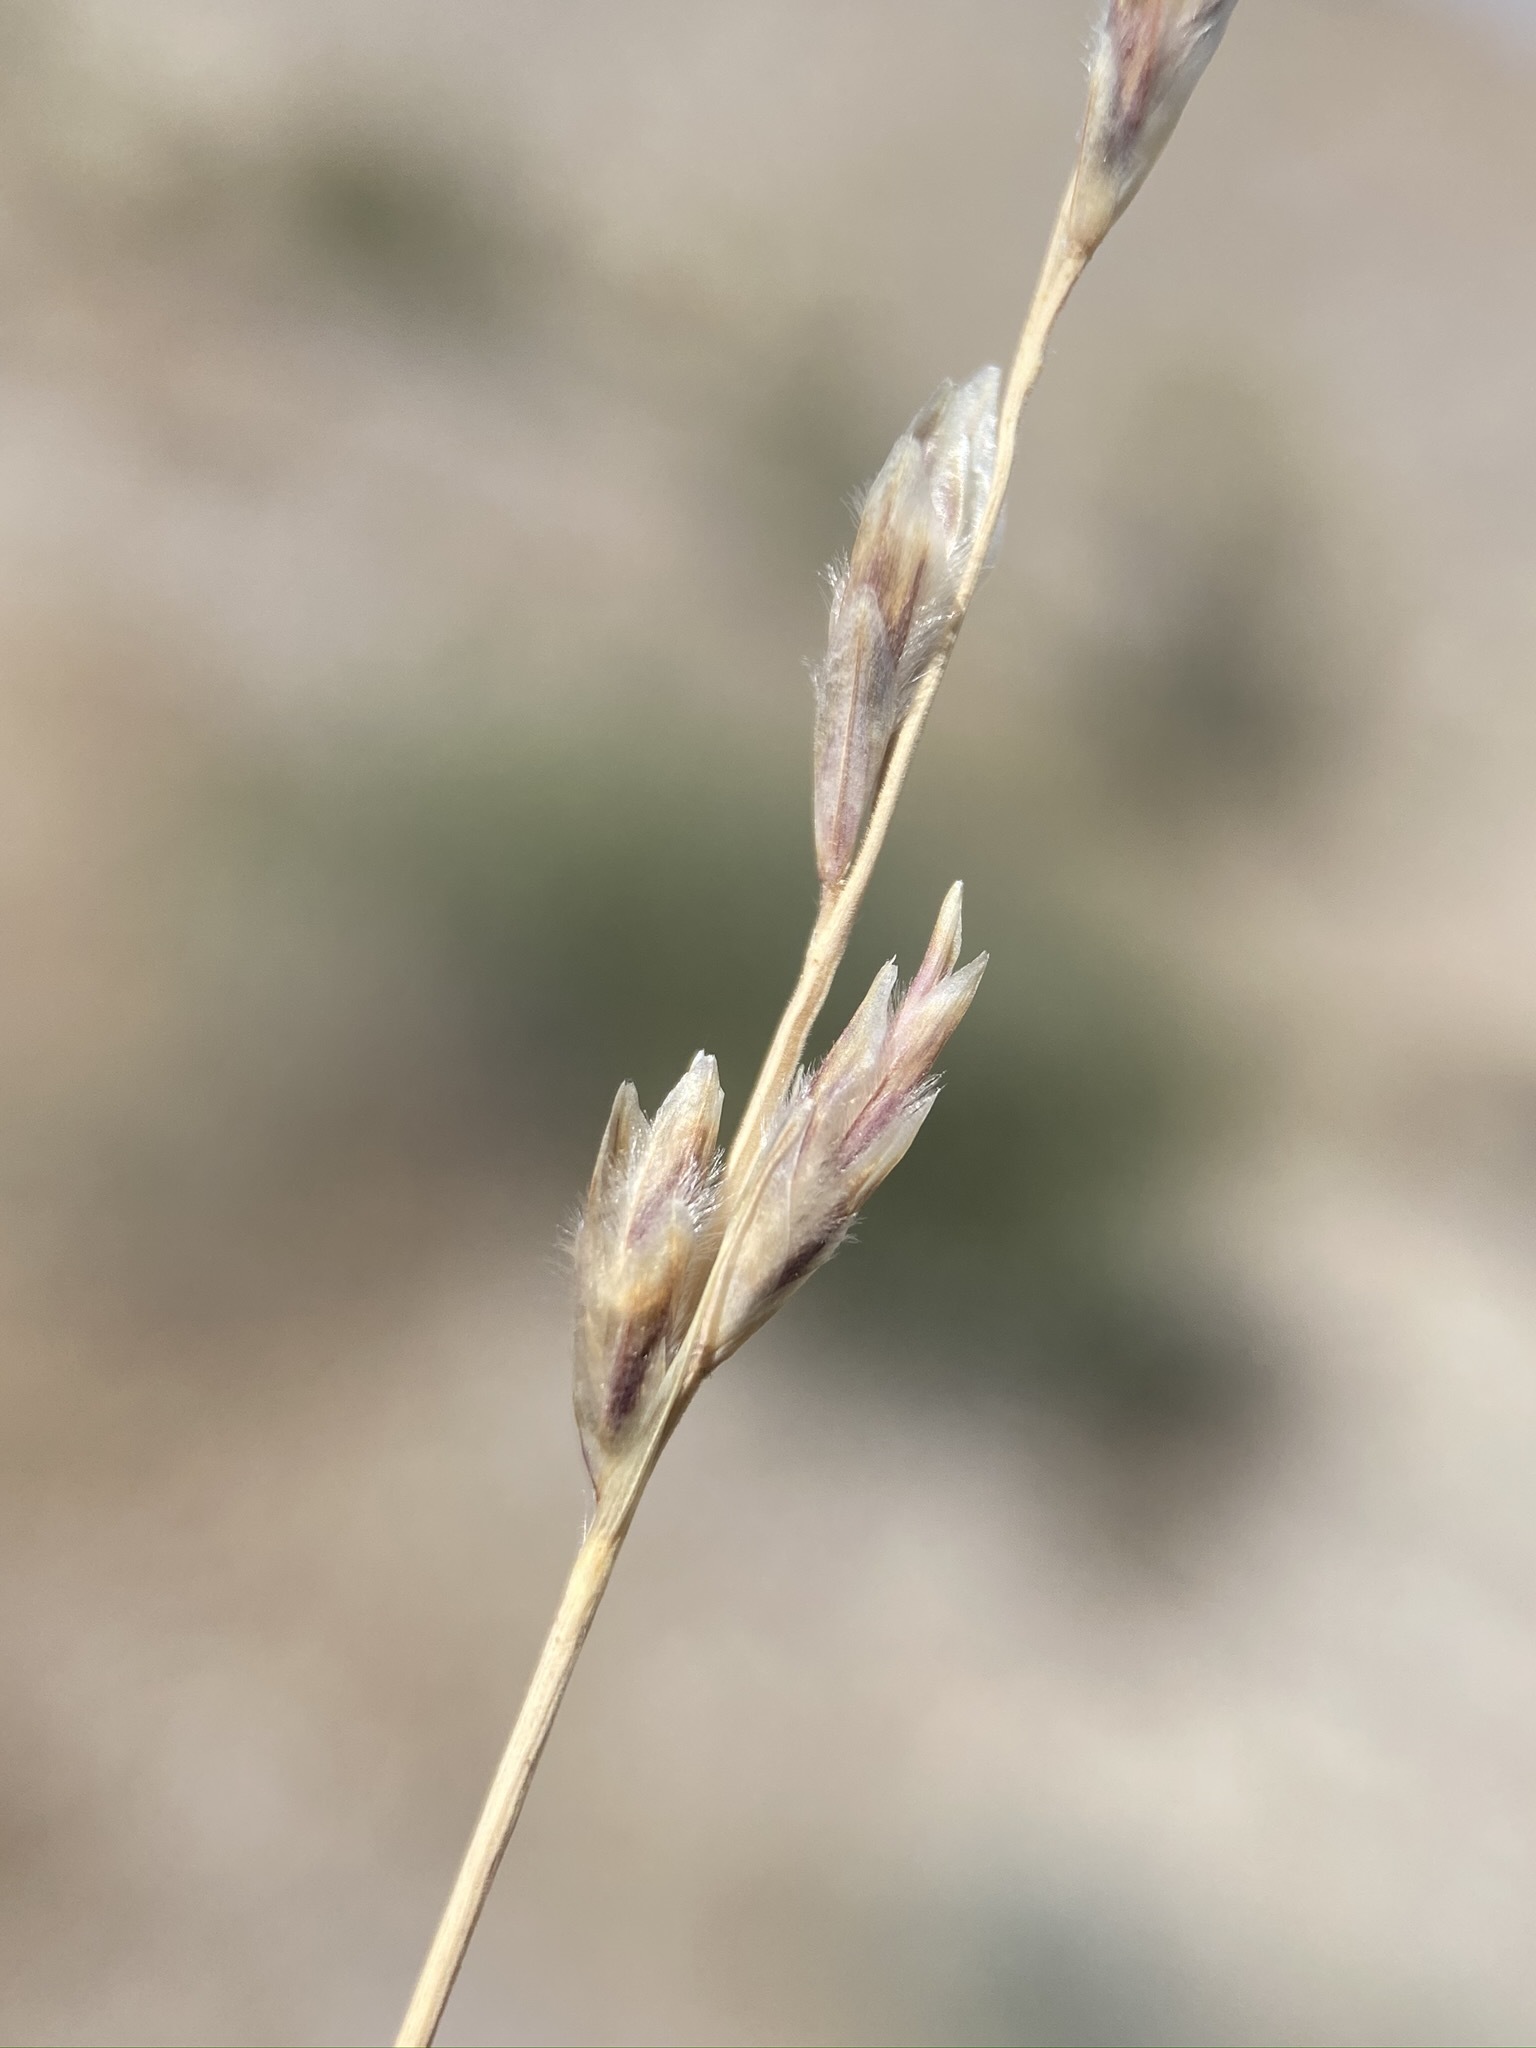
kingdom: Plantae
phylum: Tracheophyta
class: Liliopsida
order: Poales
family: Poaceae
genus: Tridentopsis
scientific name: Tridentopsis mutica
